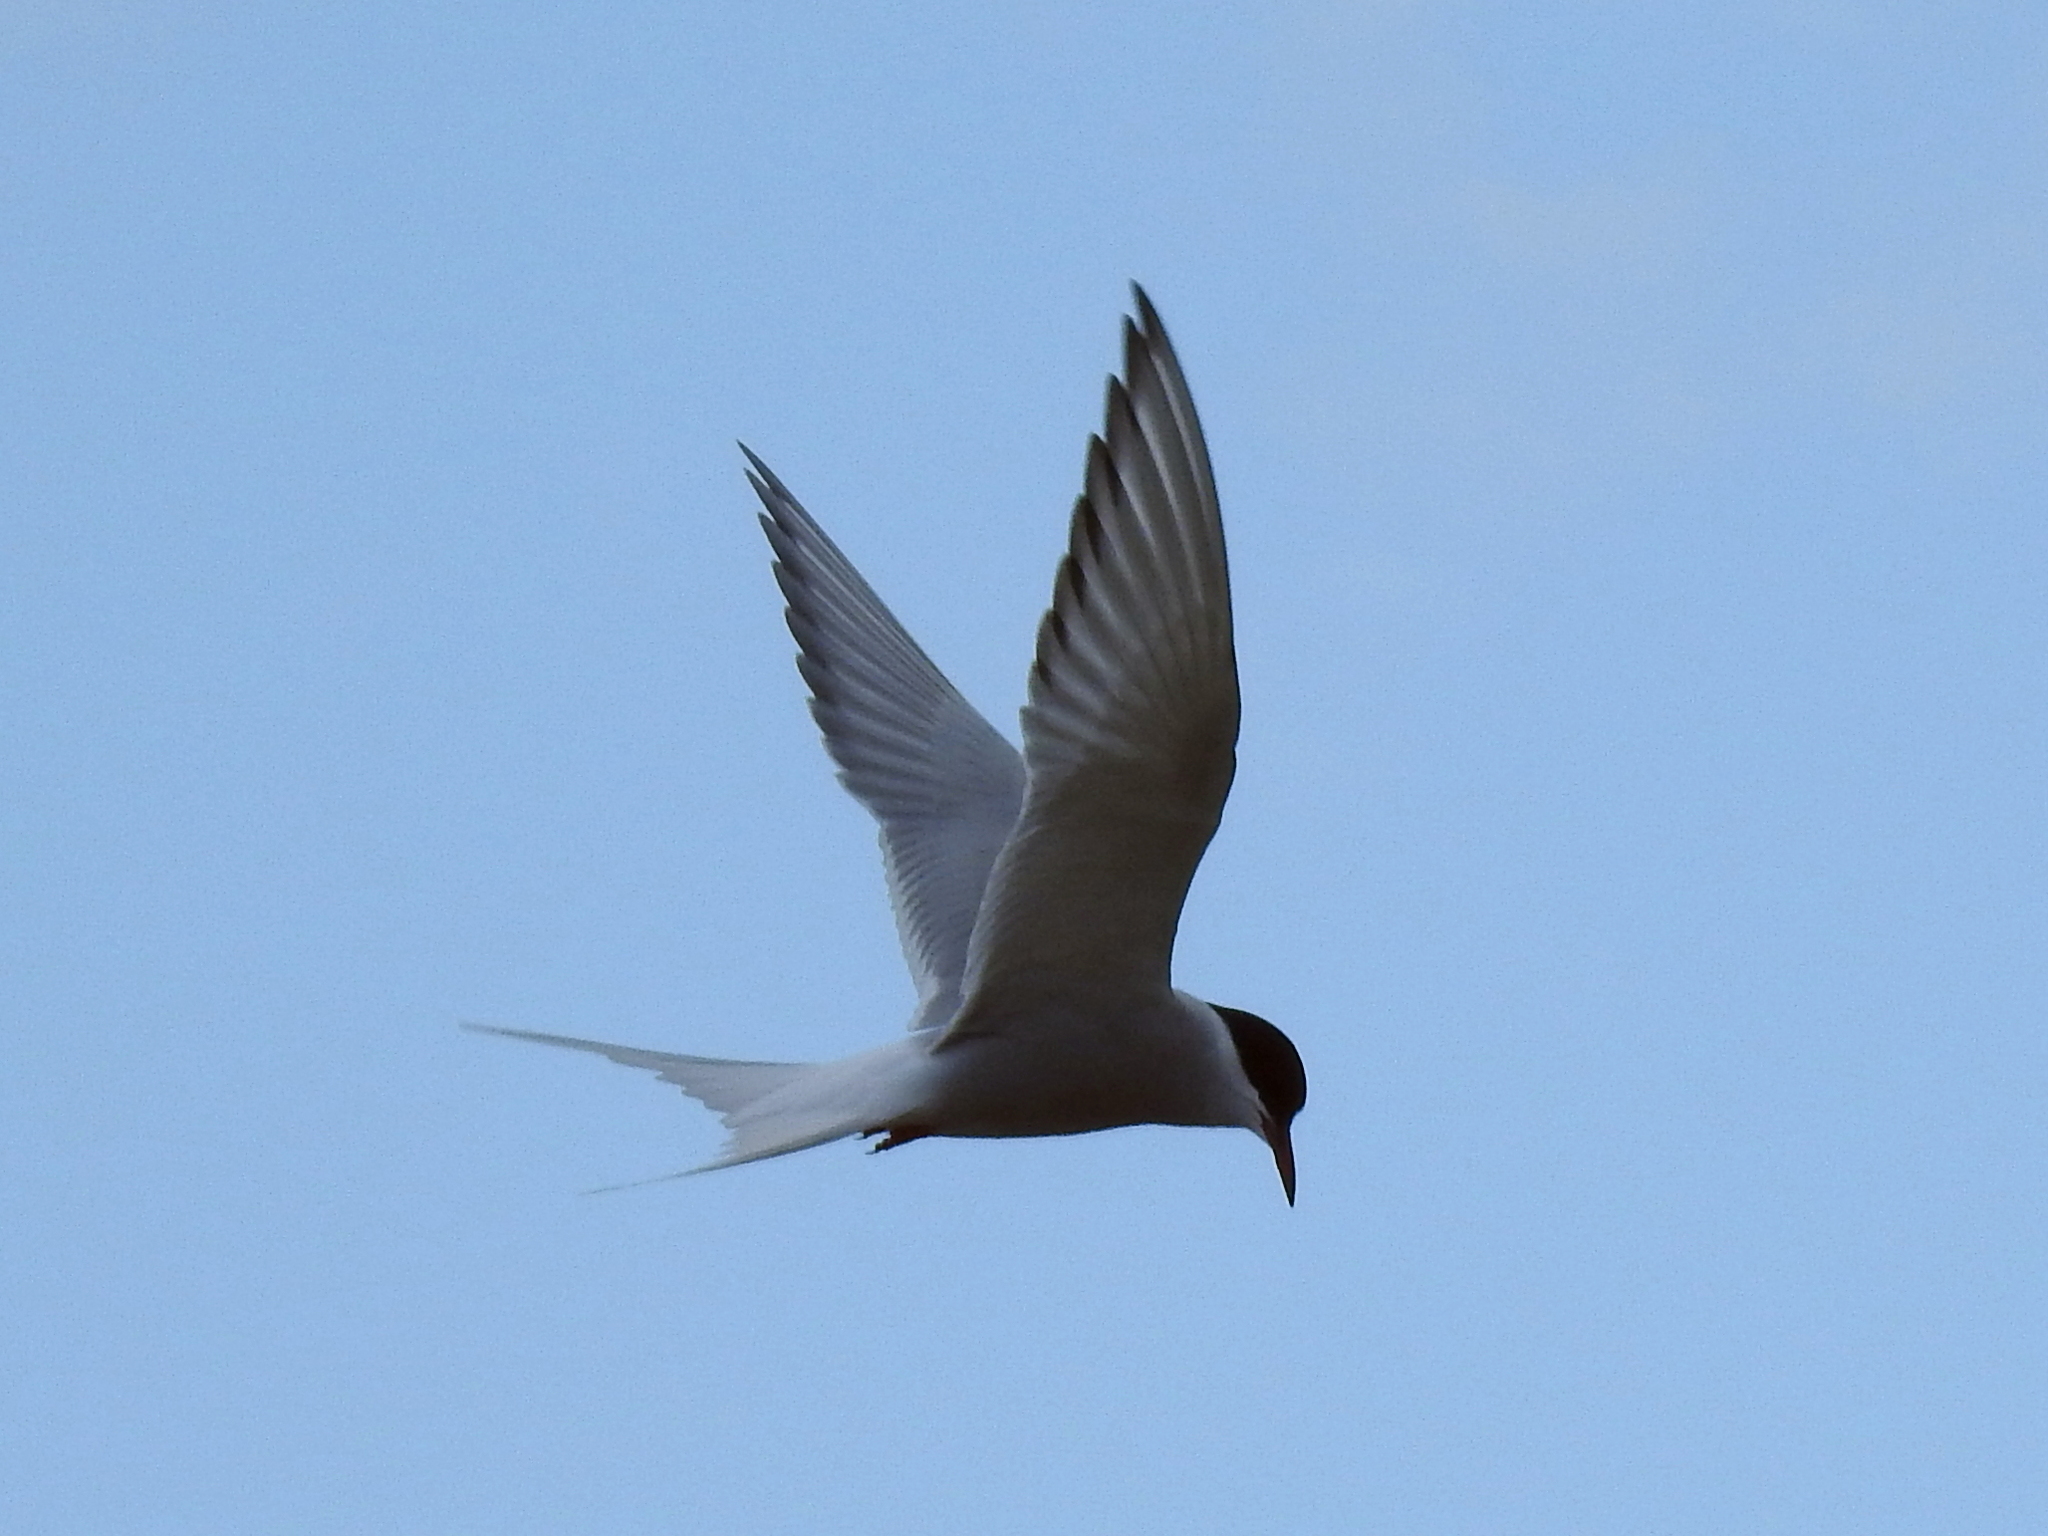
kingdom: Animalia
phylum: Chordata
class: Aves
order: Charadriiformes
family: Laridae
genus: Sterna
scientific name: Sterna paradisaea
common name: Arctic tern
